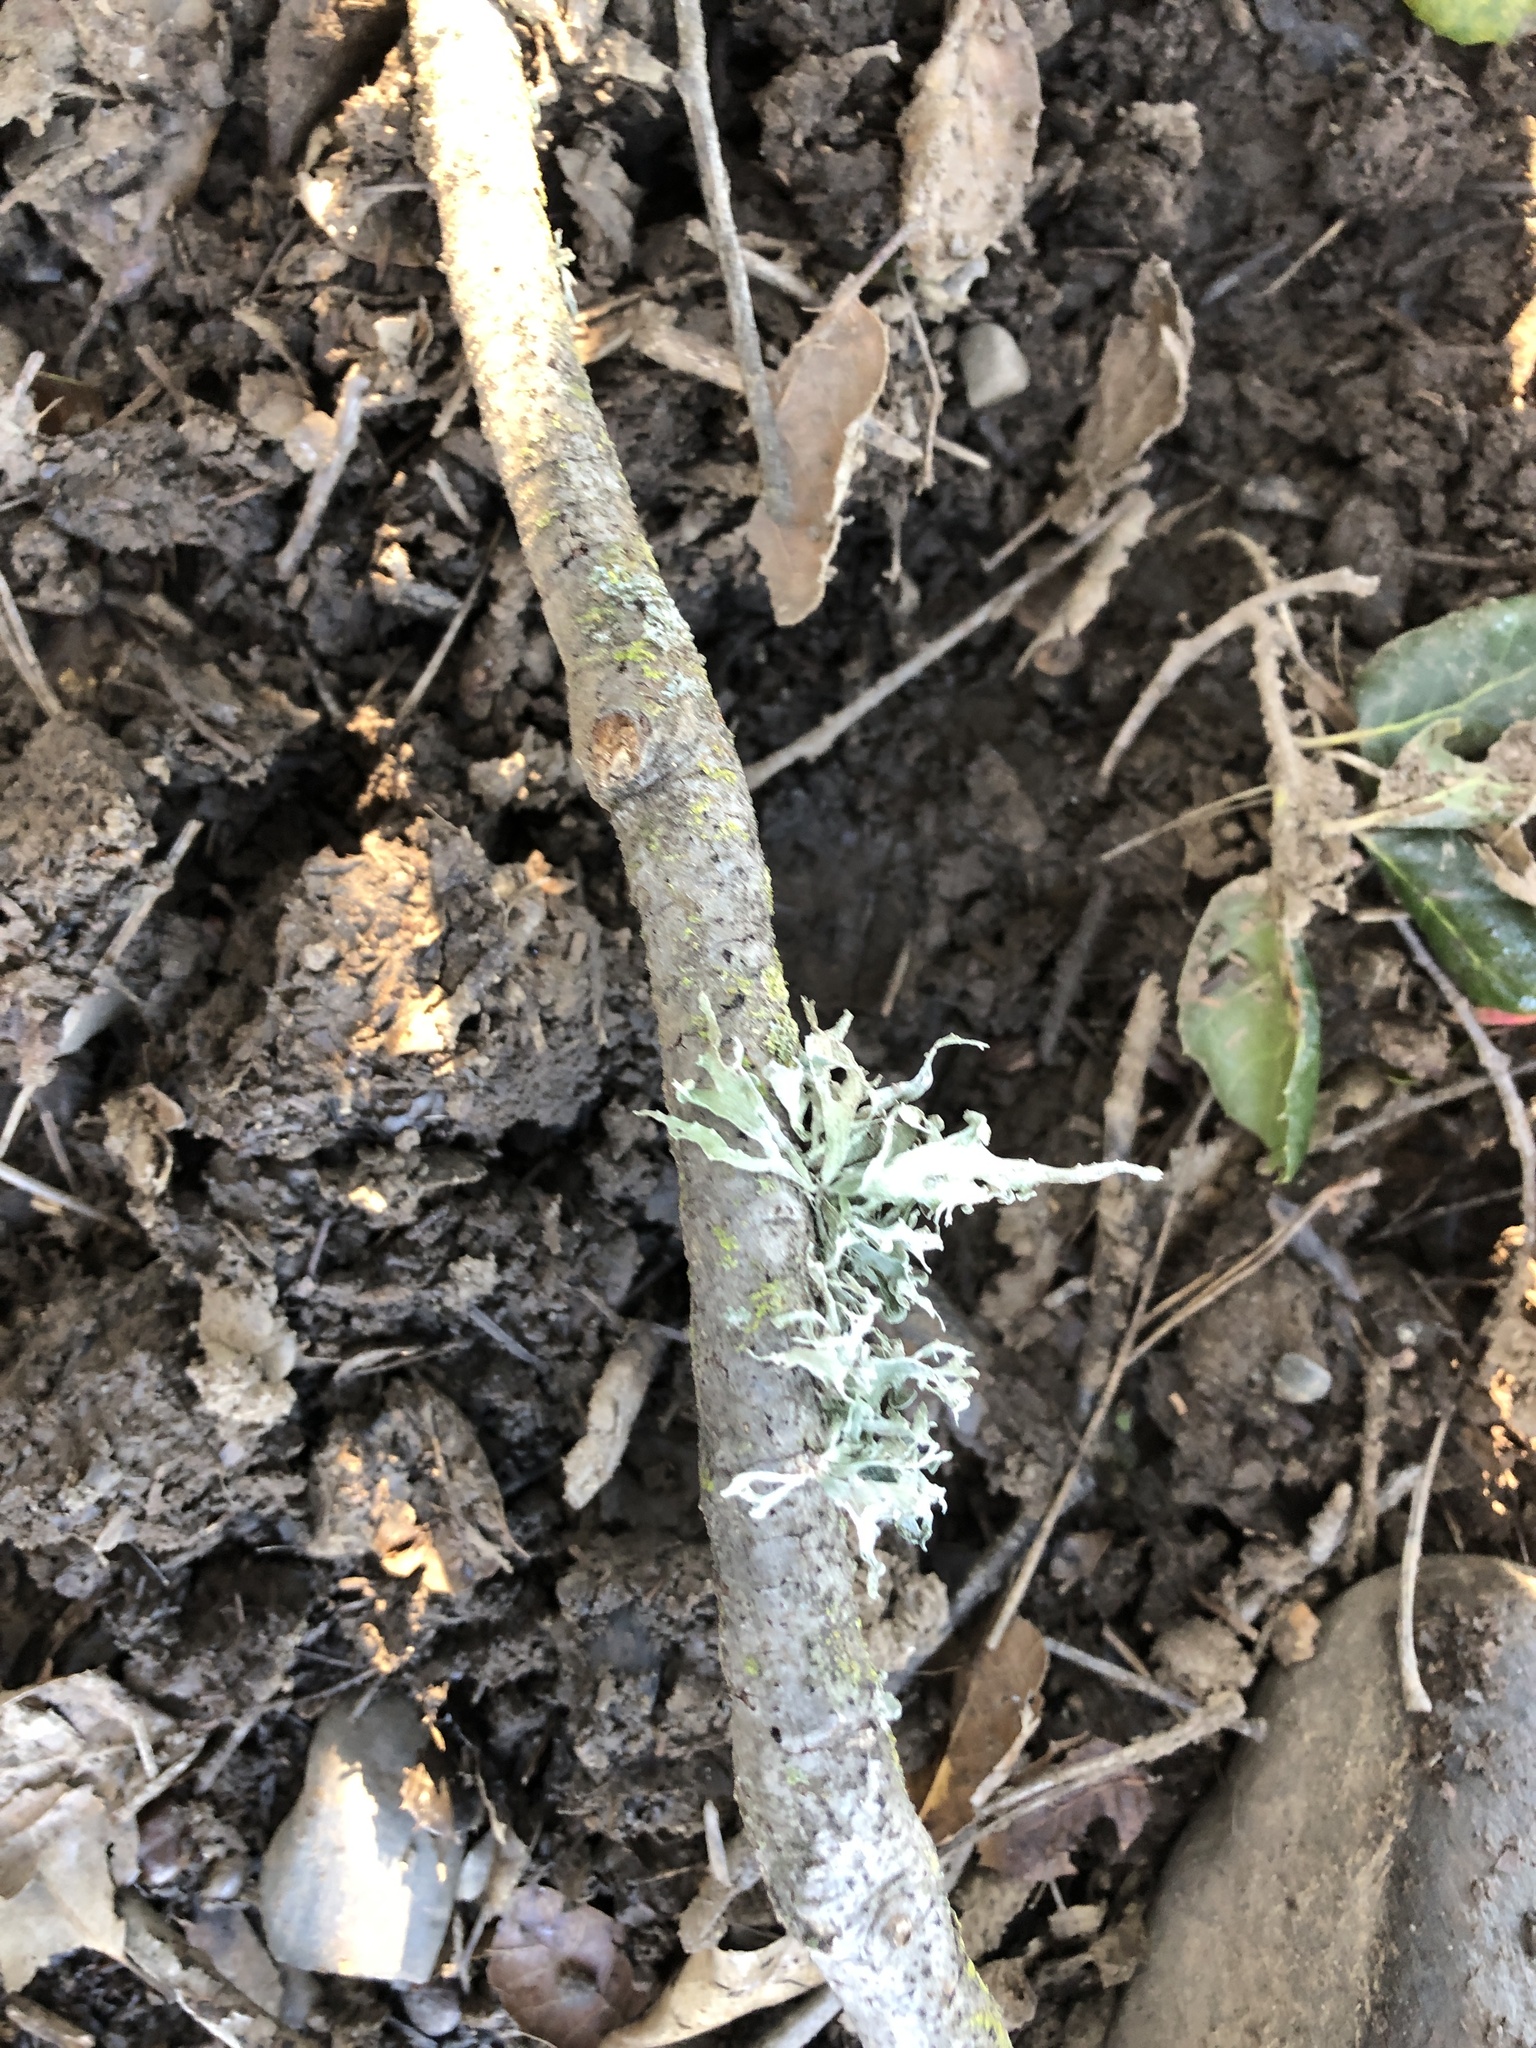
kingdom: Fungi
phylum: Ascomycota
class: Lecanoromycetes
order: Lecanorales
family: Ramalinaceae
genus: Ramalina
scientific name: Ramalina leptocarpha
